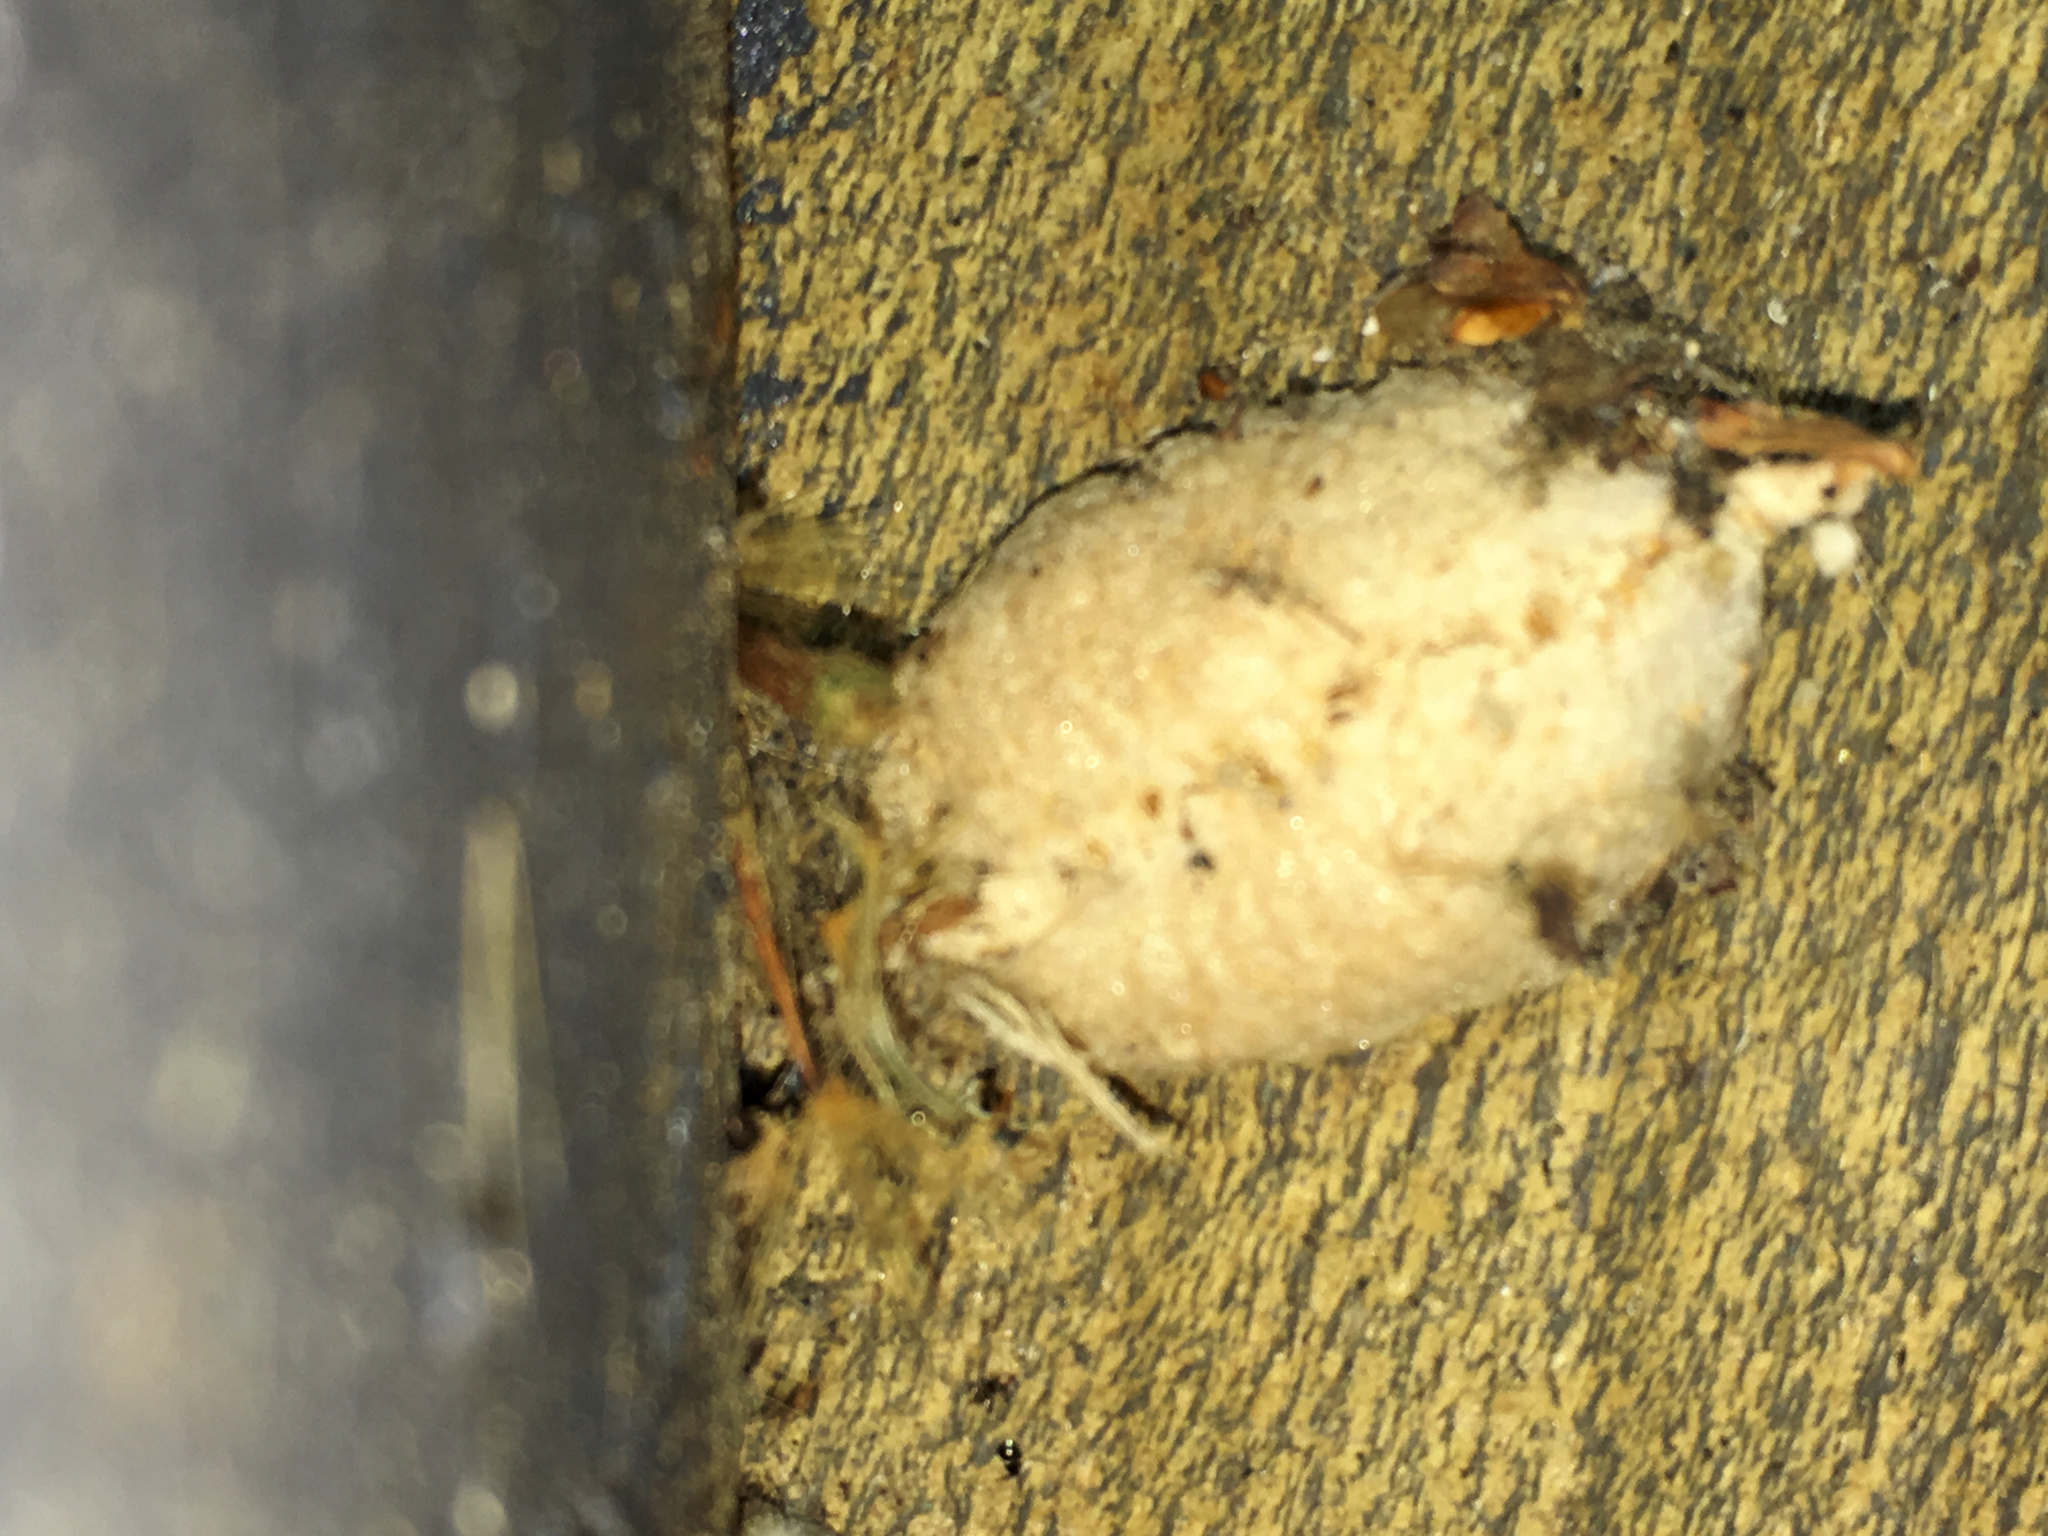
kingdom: Animalia
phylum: Arthropoda
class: Insecta
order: Mantodea
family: Miomantidae
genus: Miomantis
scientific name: Miomantis caffra
